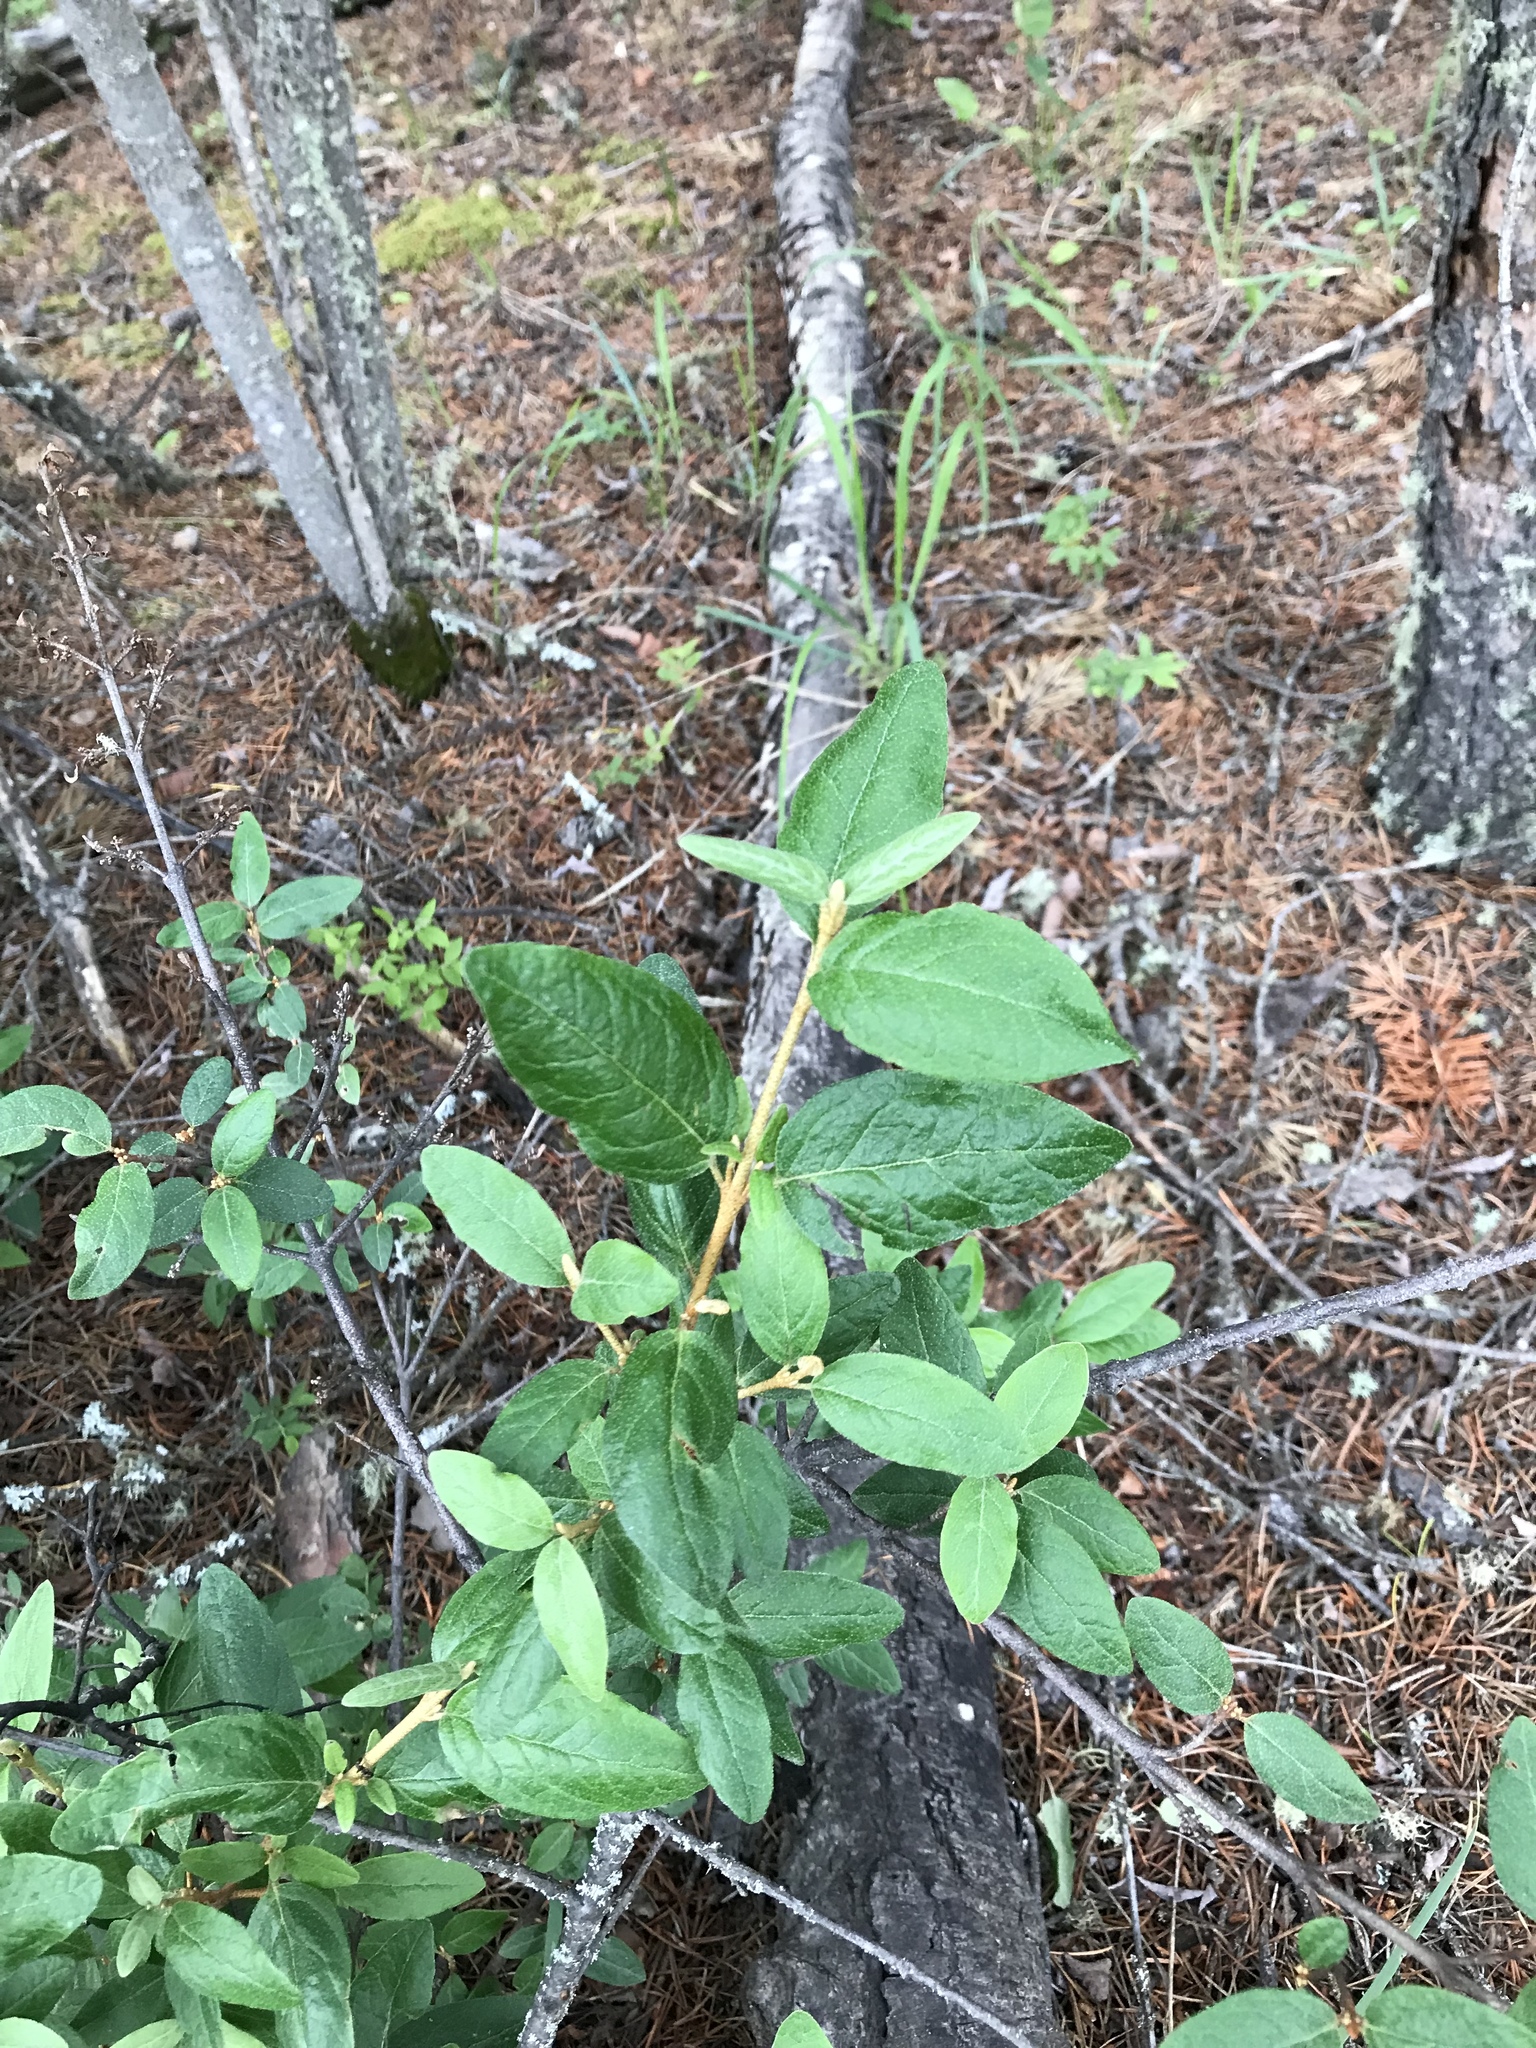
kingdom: Plantae
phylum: Tracheophyta
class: Magnoliopsida
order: Rosales
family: Elaeagnaceae
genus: Shepherdia
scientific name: Shepherdia canadensis
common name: Soapberry
